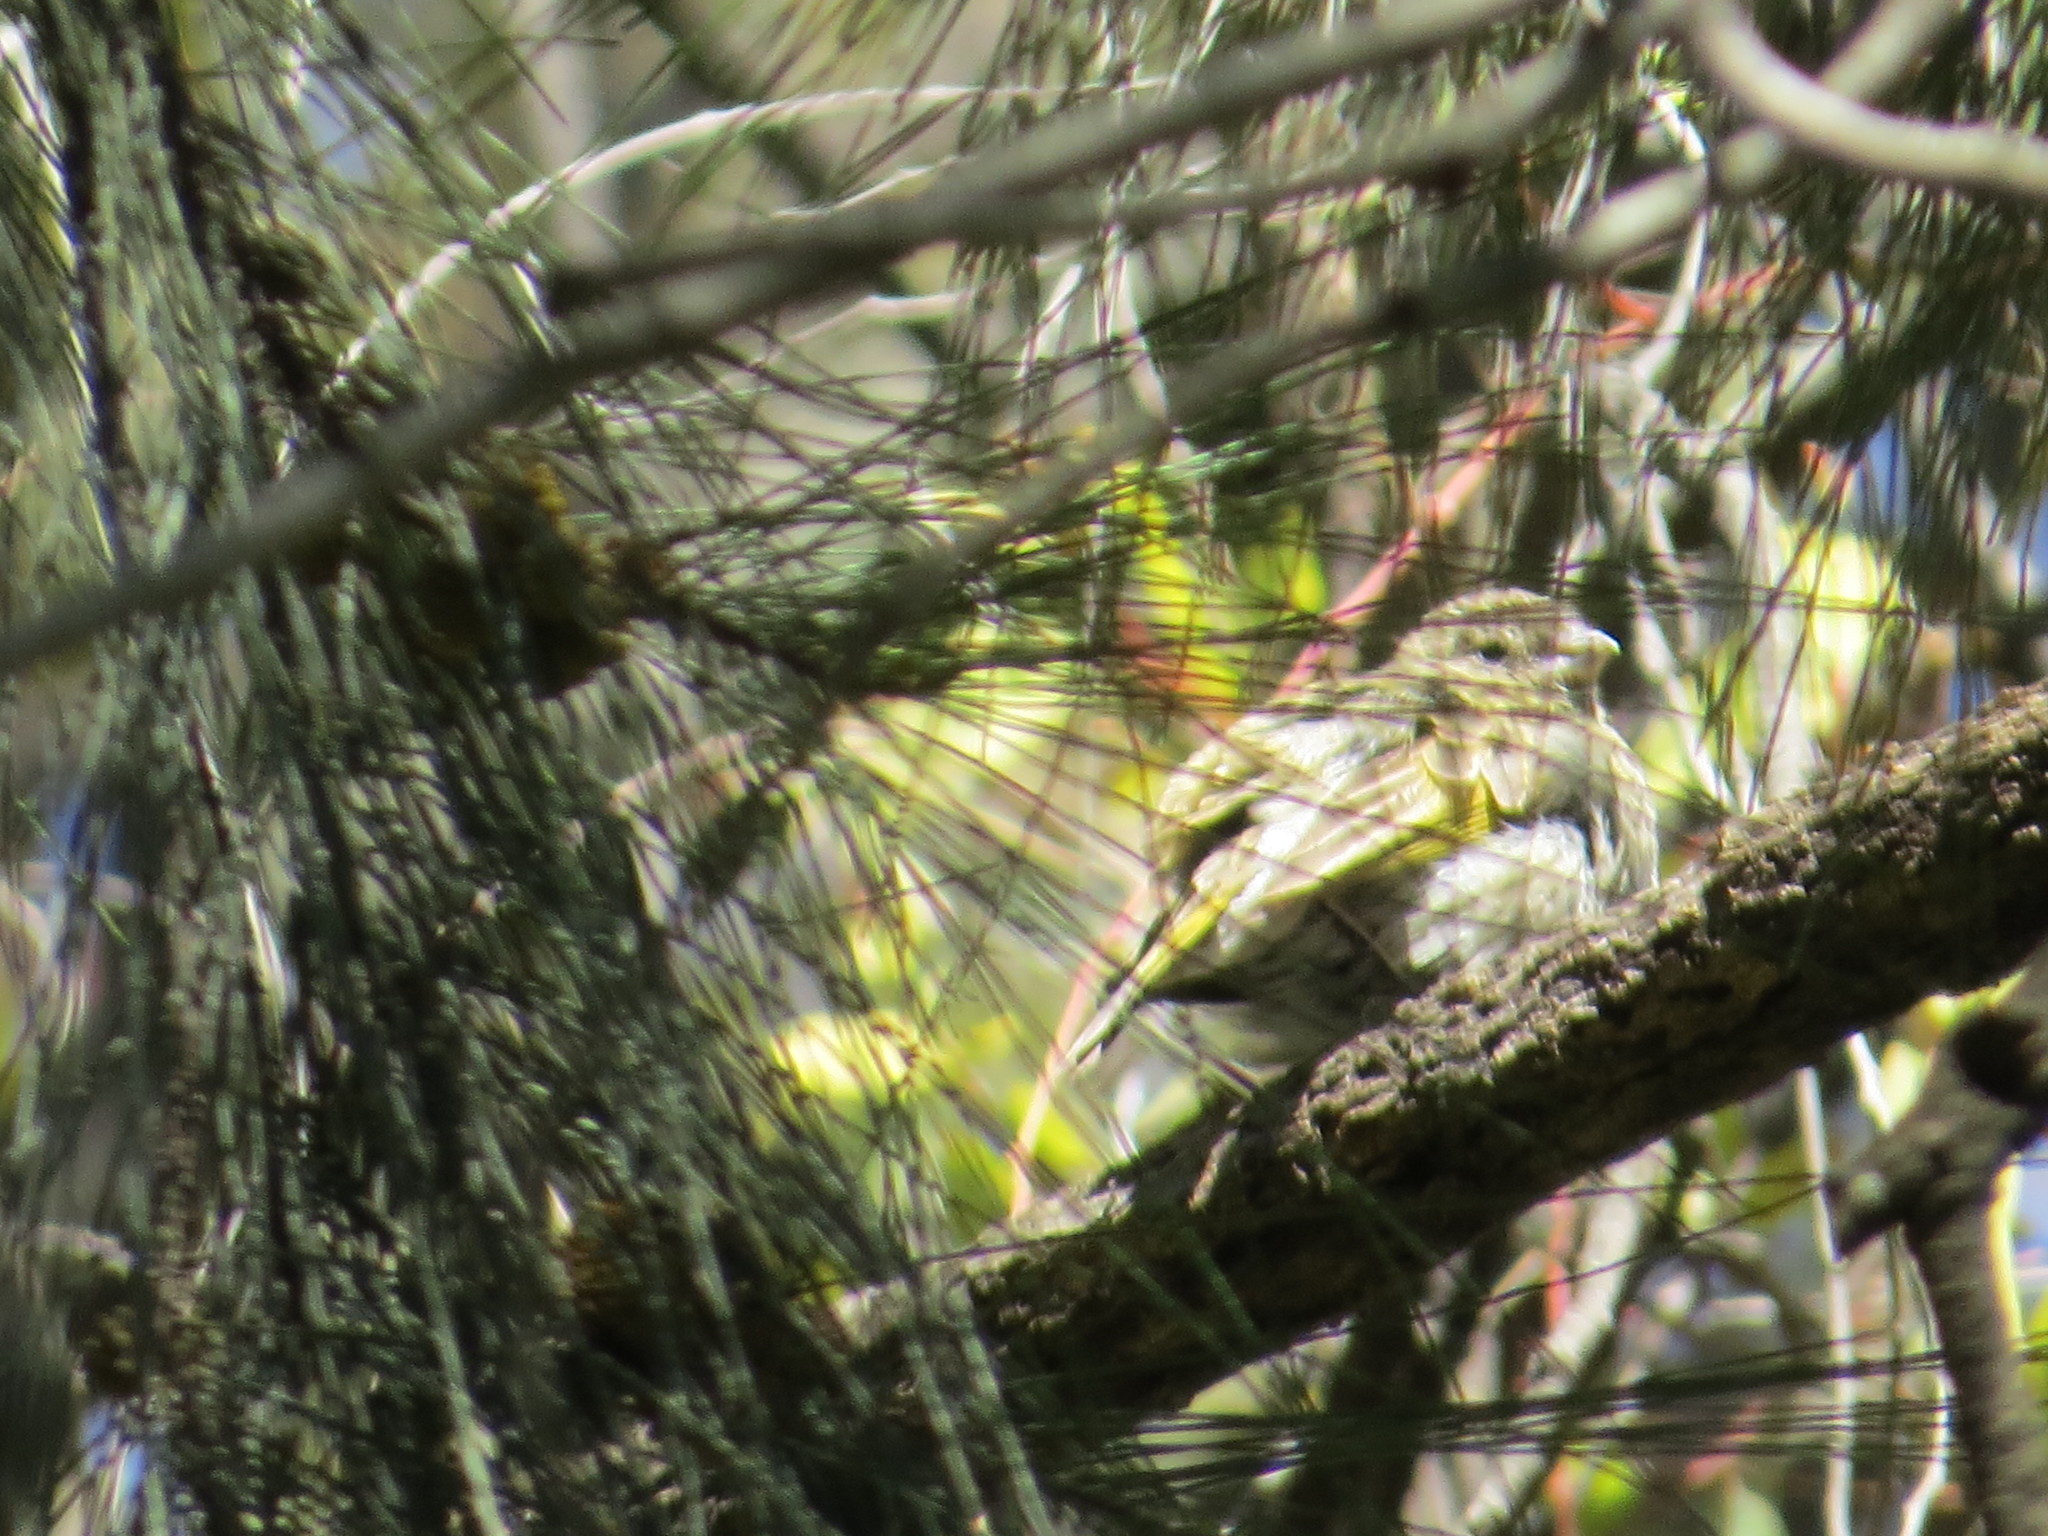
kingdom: Animalia
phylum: Chordata
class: Aves
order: Passeriformes
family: Thraupidae
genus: Sicalis
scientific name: Sicalis flaveola
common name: Saffron finch
